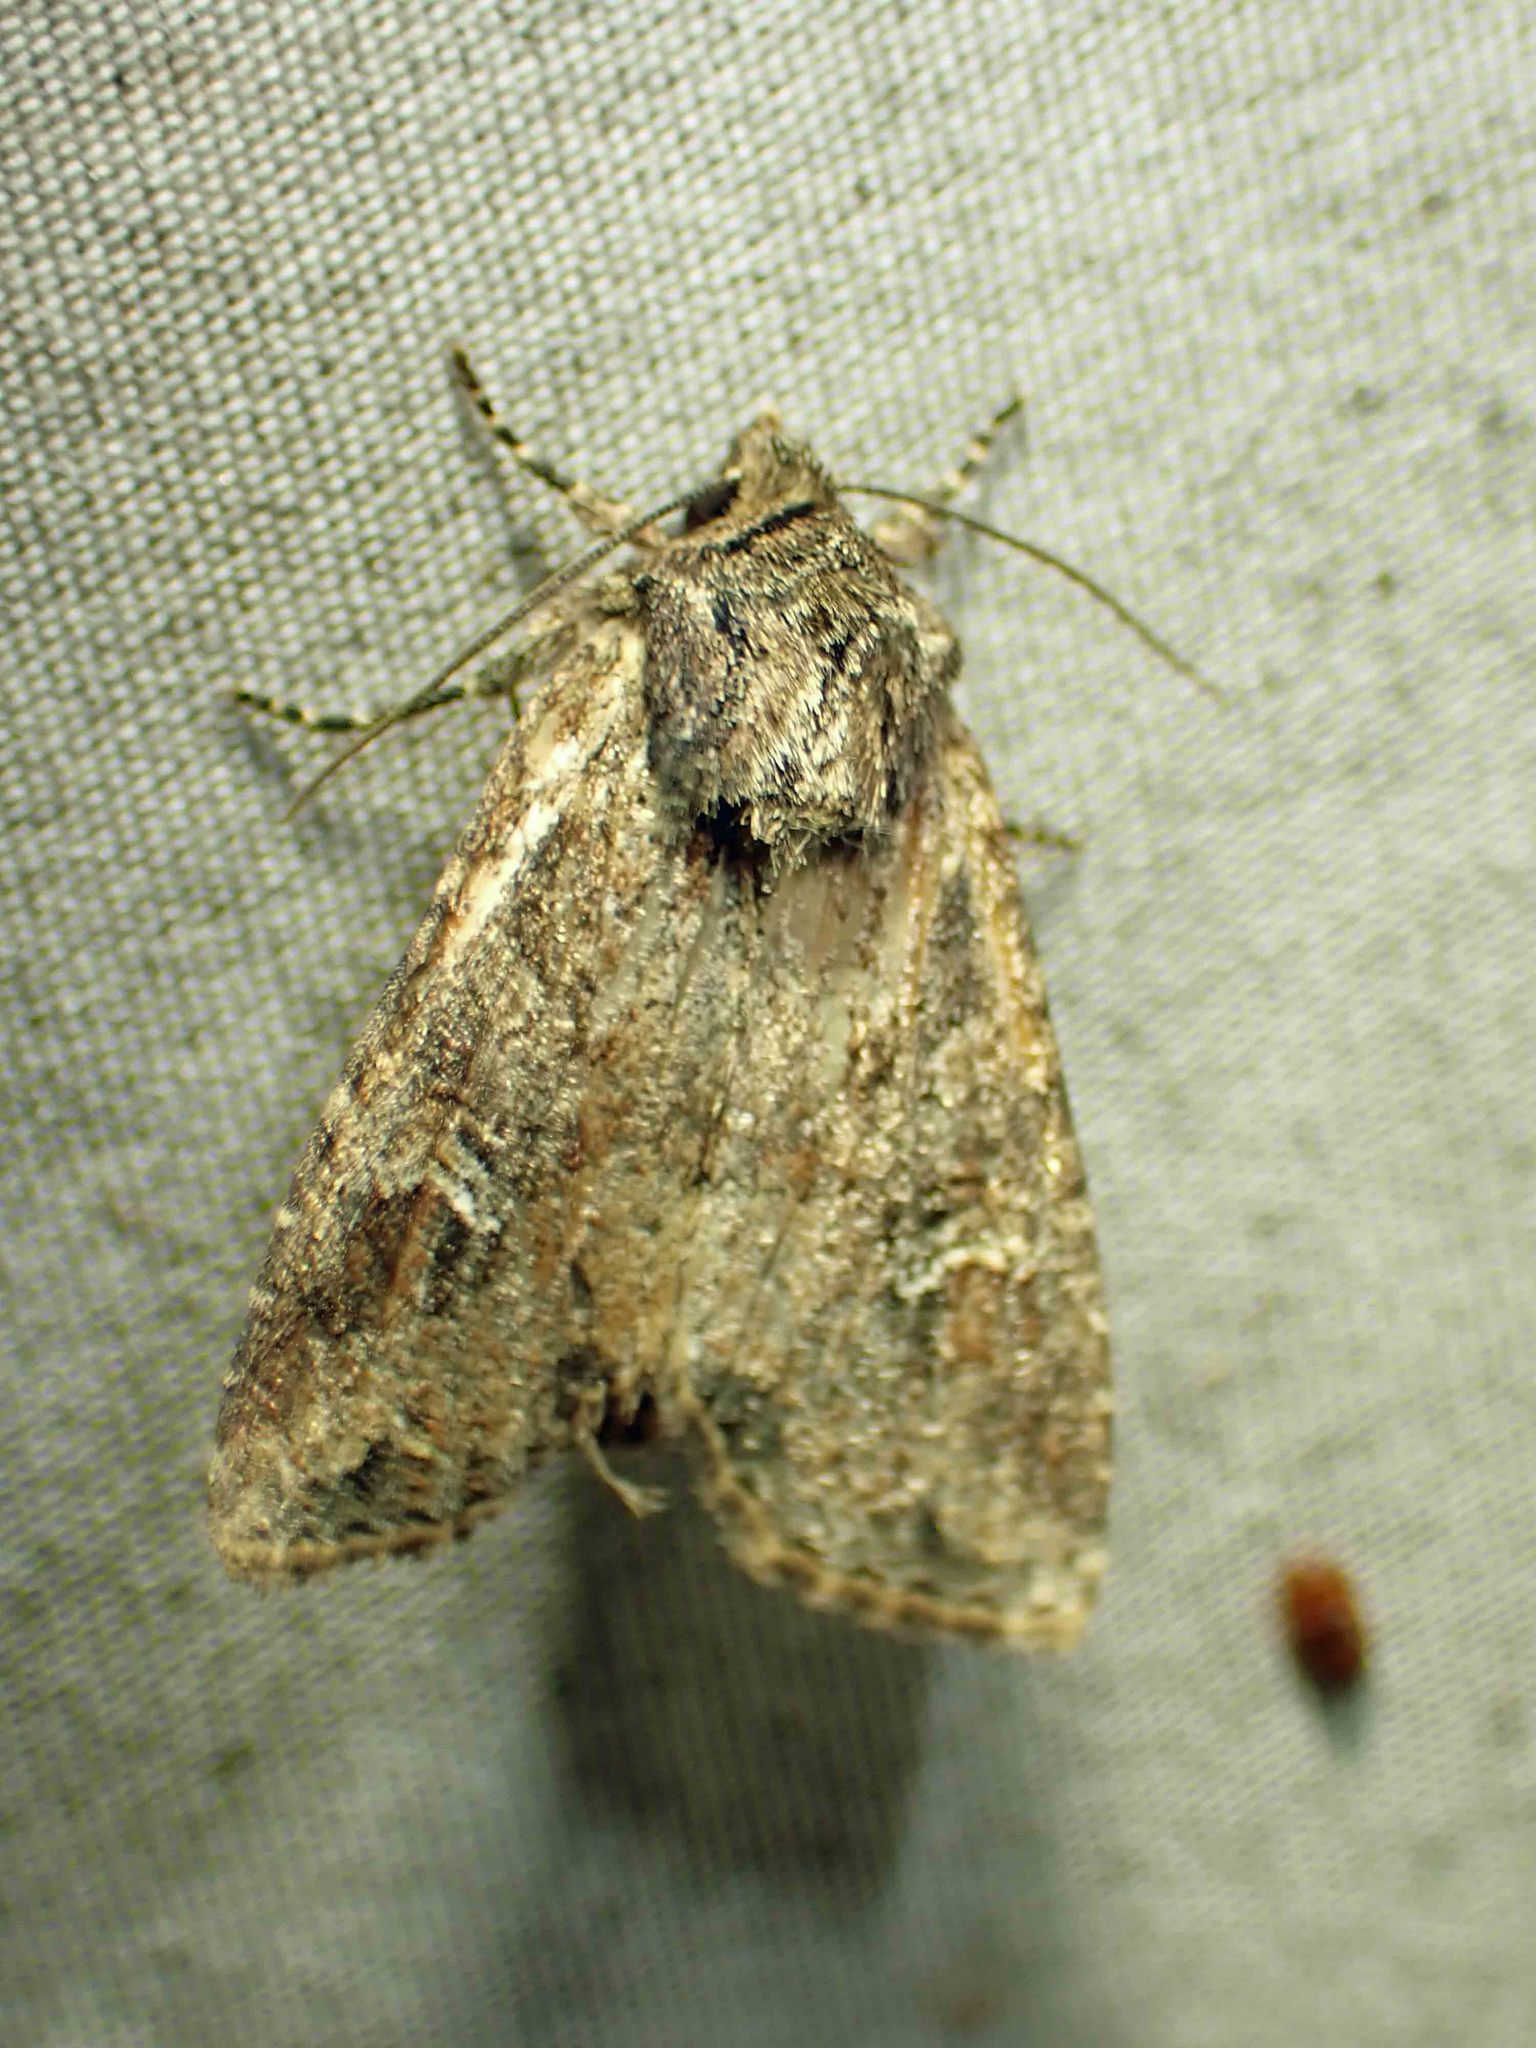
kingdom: Animalia
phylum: Arthropoda
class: Insecta
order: Lepidoptera
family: Noctuidae
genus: Apamea
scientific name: Apamea unanimis
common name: Small clouded brindle
